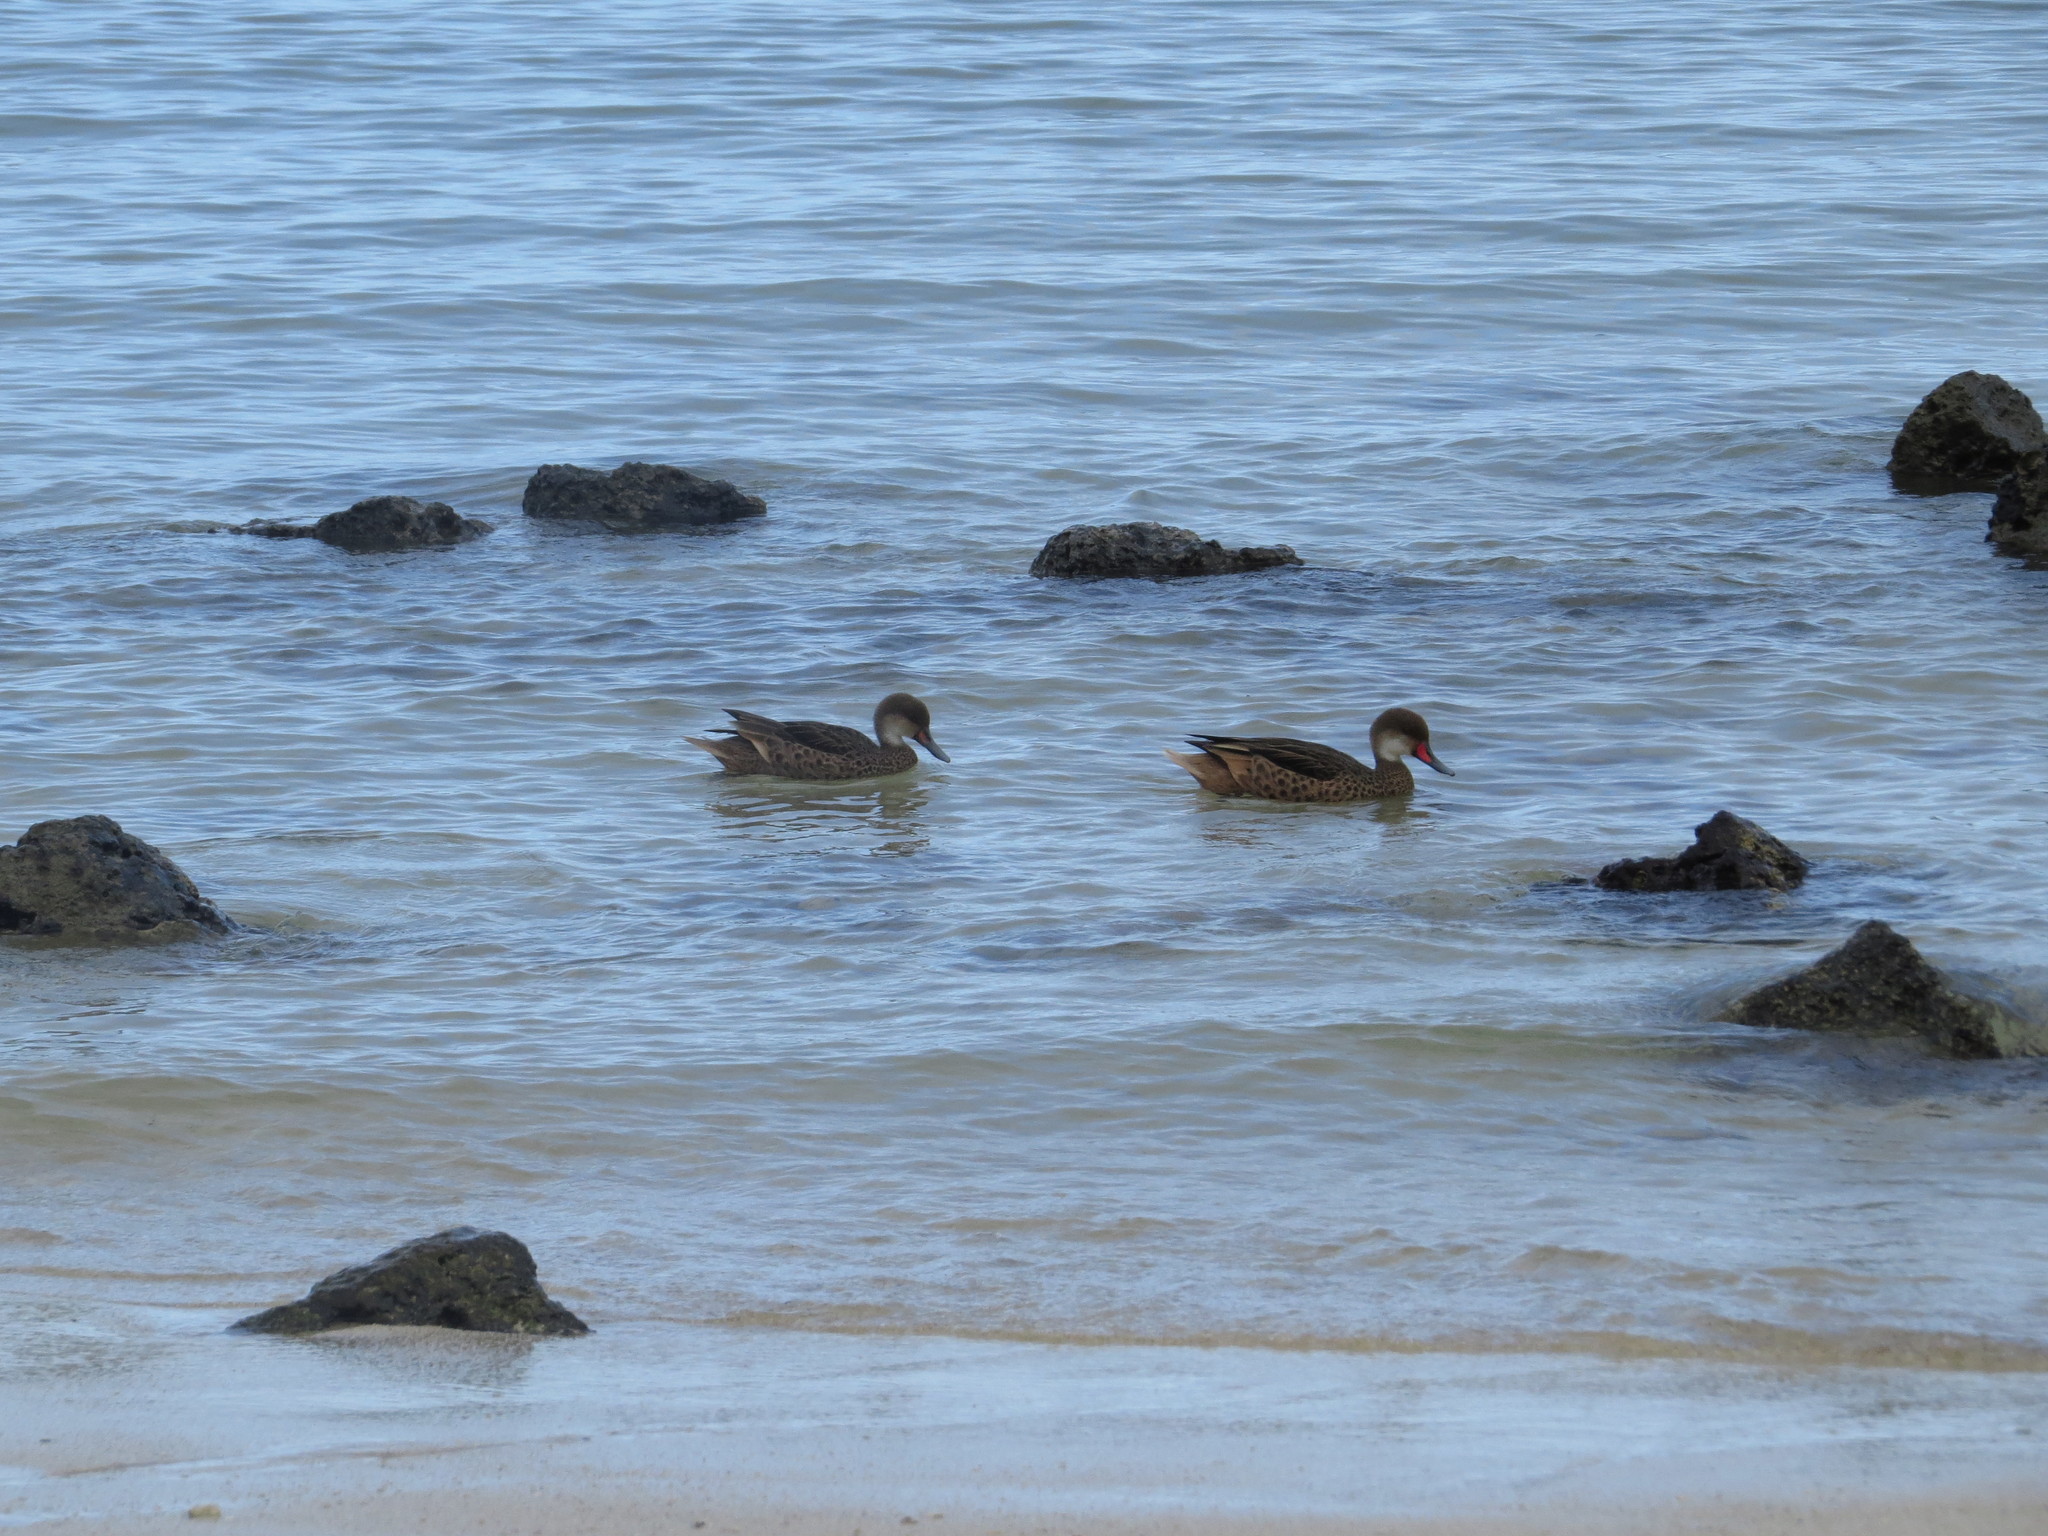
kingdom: Animalia
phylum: Chordata
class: Aves
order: Anseriformes
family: Anatidae
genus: Anas
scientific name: Anas bahamensis
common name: White-cheeked pintail
